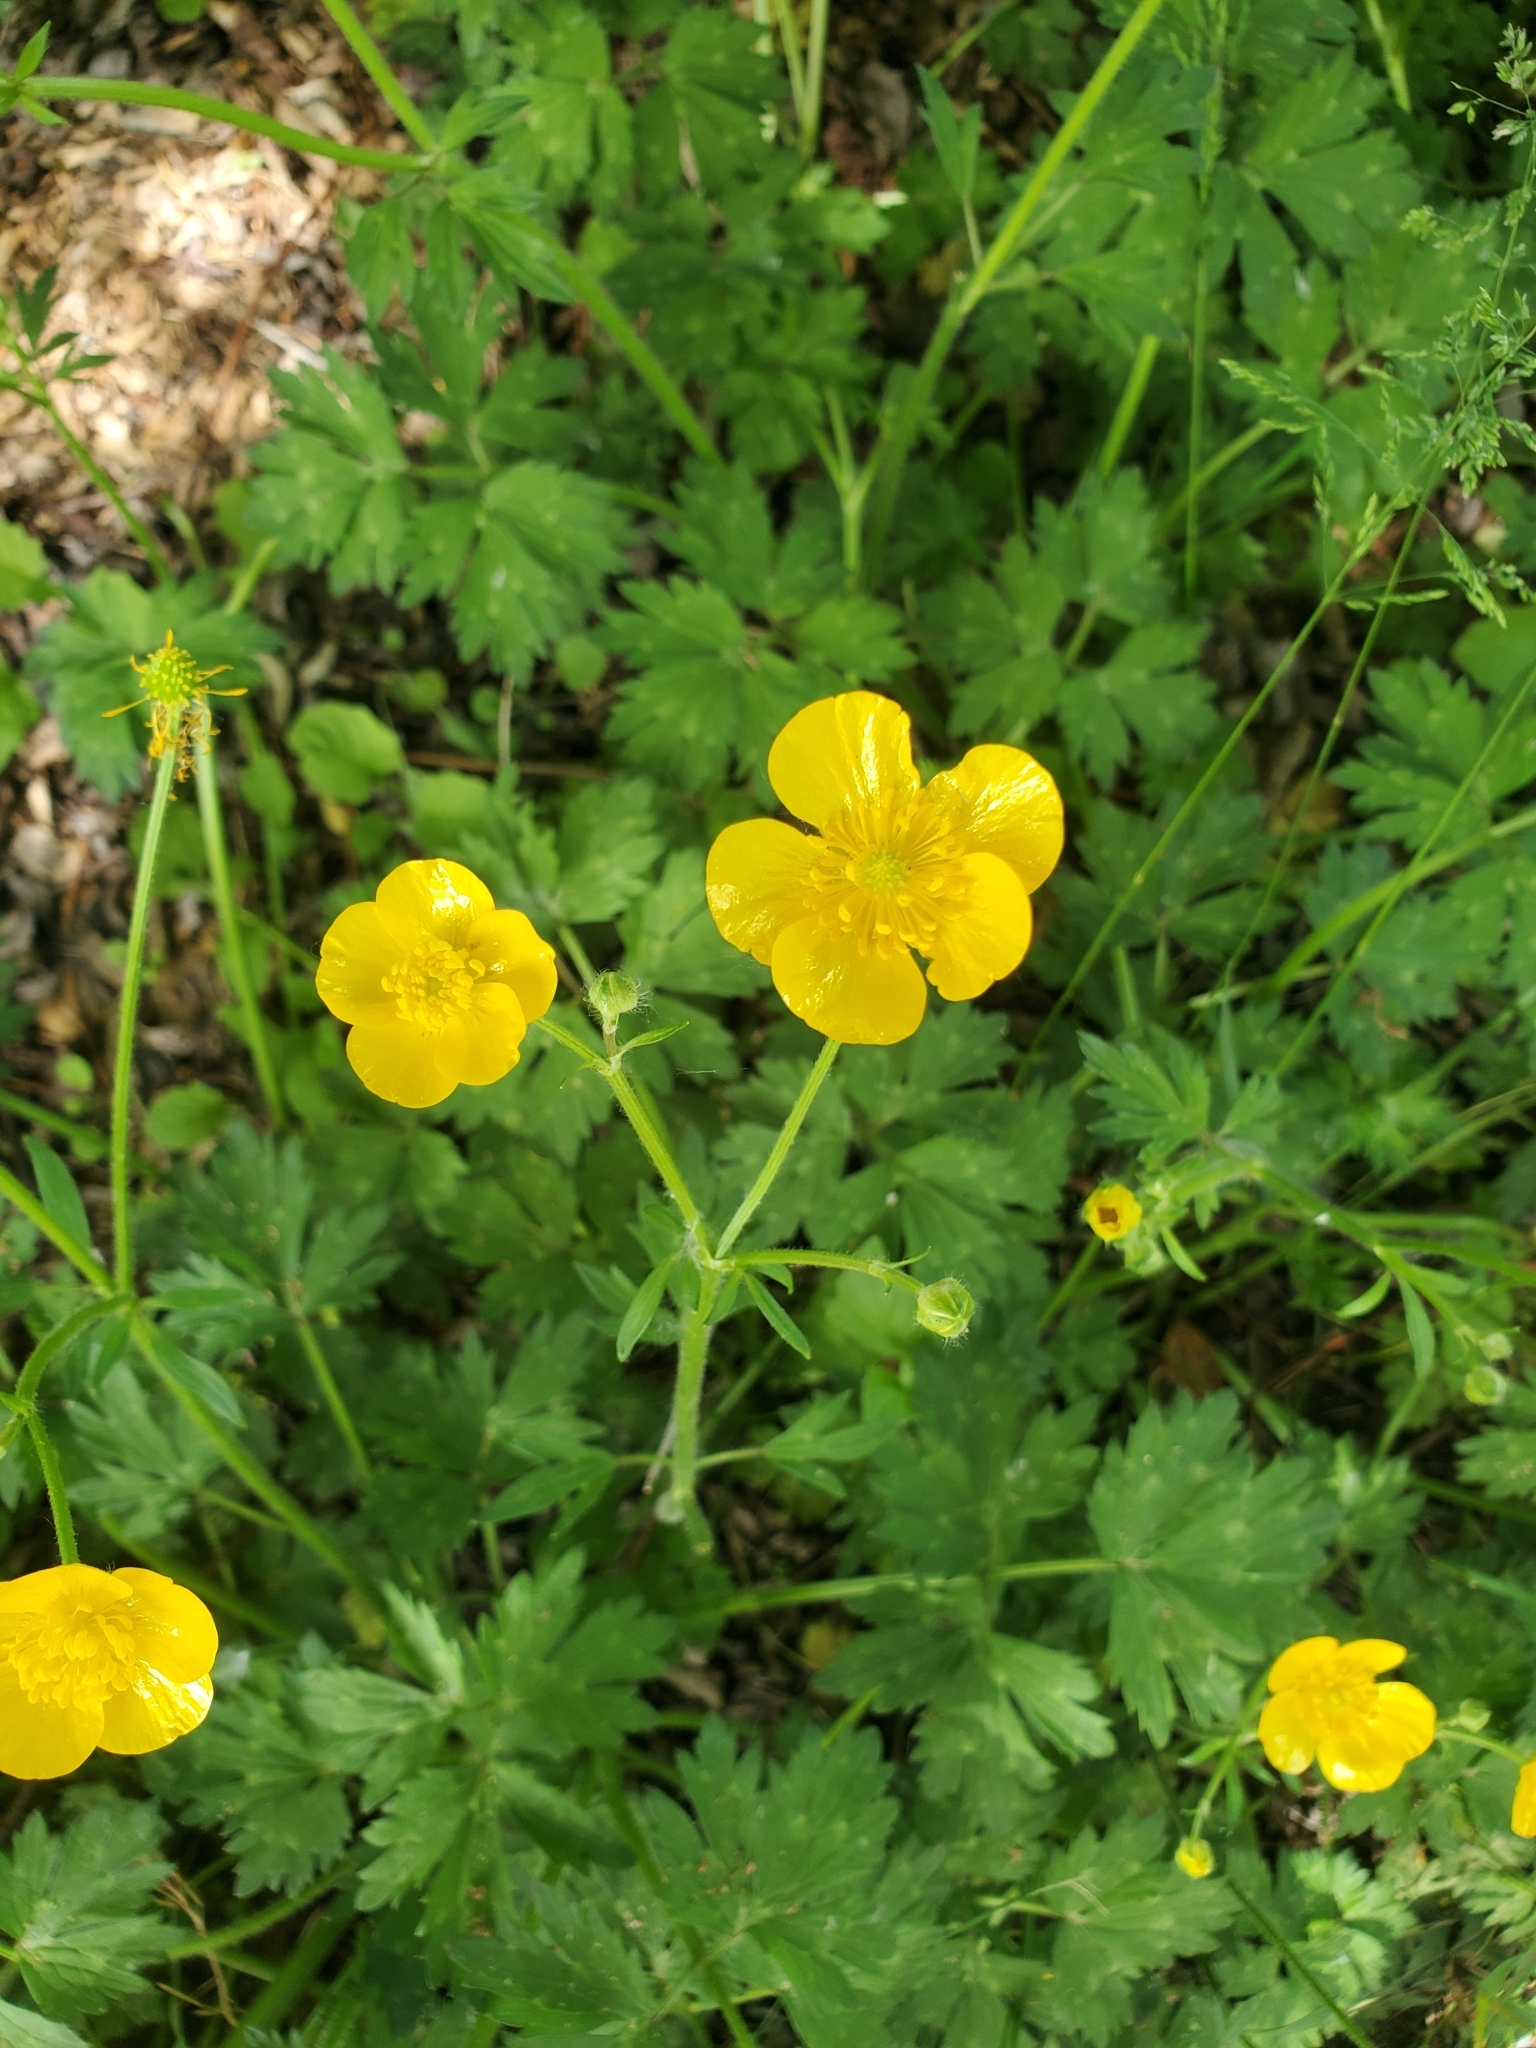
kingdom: Plantae
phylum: Tracheophyta
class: Magnoliopsida
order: Ranunculales
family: Ranunculaceae
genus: Ranunculus
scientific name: Ranunculus repens
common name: Creeping buttercup
